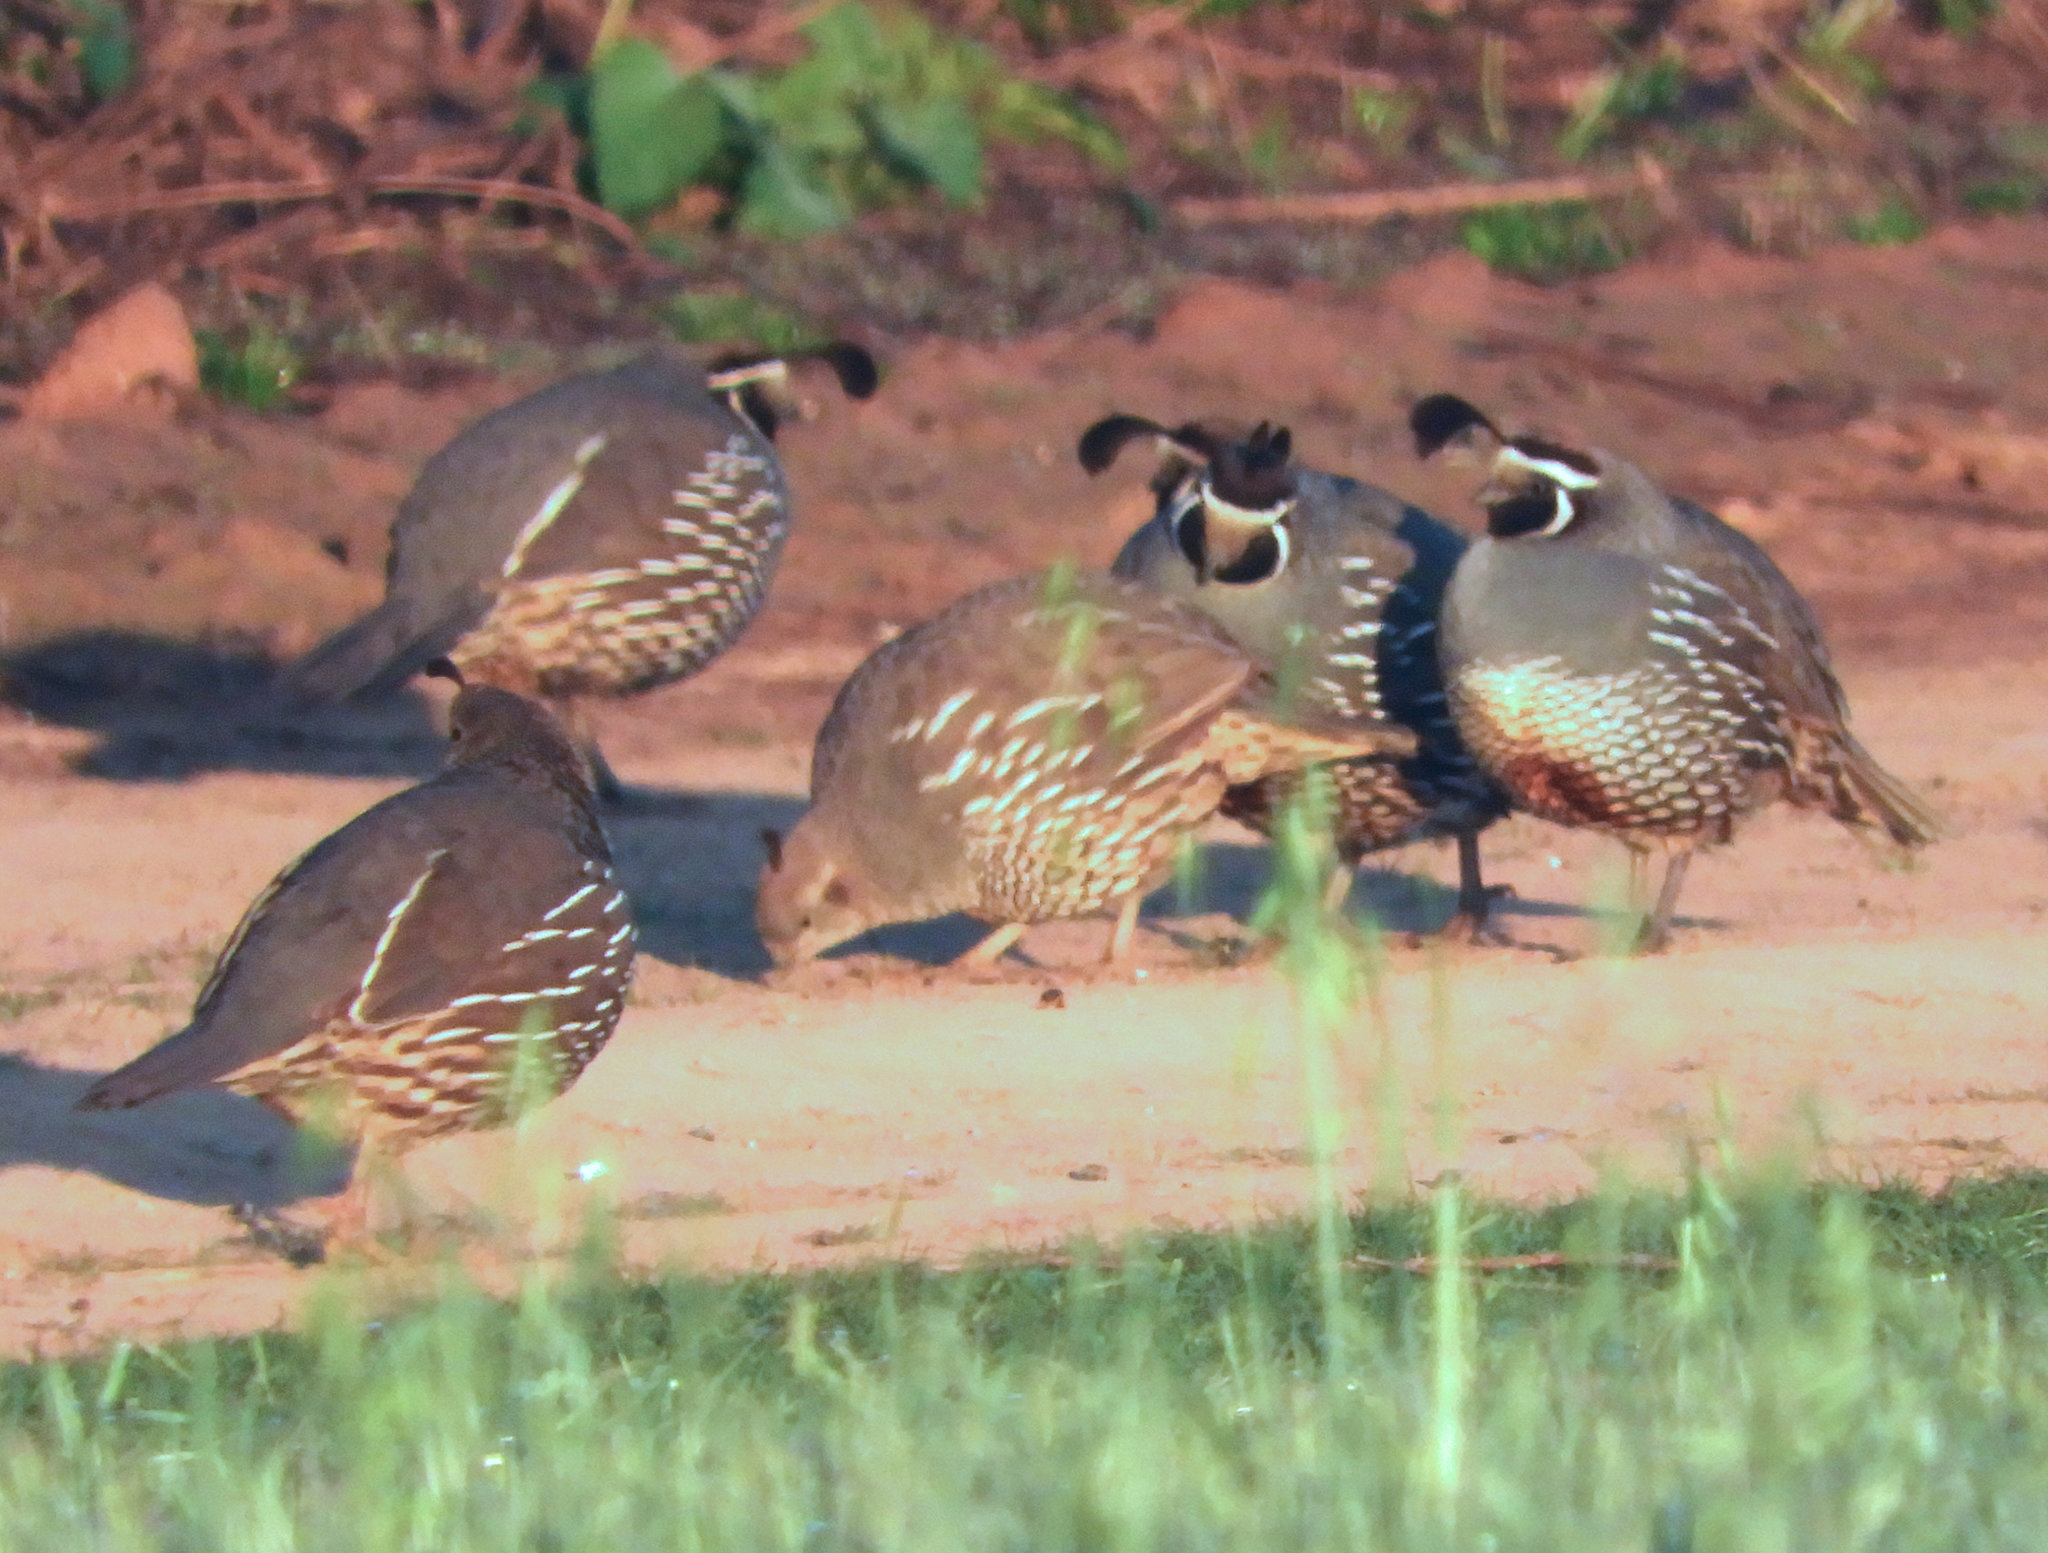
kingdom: Animalia
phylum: Chordata
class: Aves
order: Galliformes
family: Odontophoridae
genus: Callipepla
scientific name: Callipepla californica
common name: California quail
